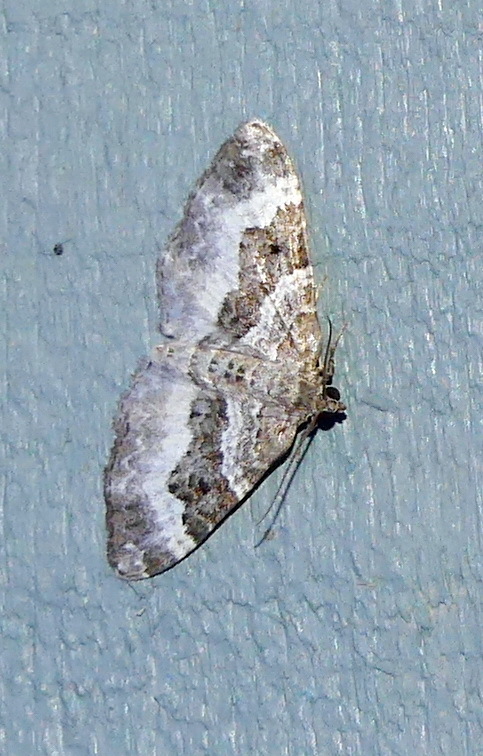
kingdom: Animalia
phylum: Arthropoda
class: Insecta
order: Lepidoptera
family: Geometridae
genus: Epirrhoe
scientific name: Epirrhoe alternata
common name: Common carpet
